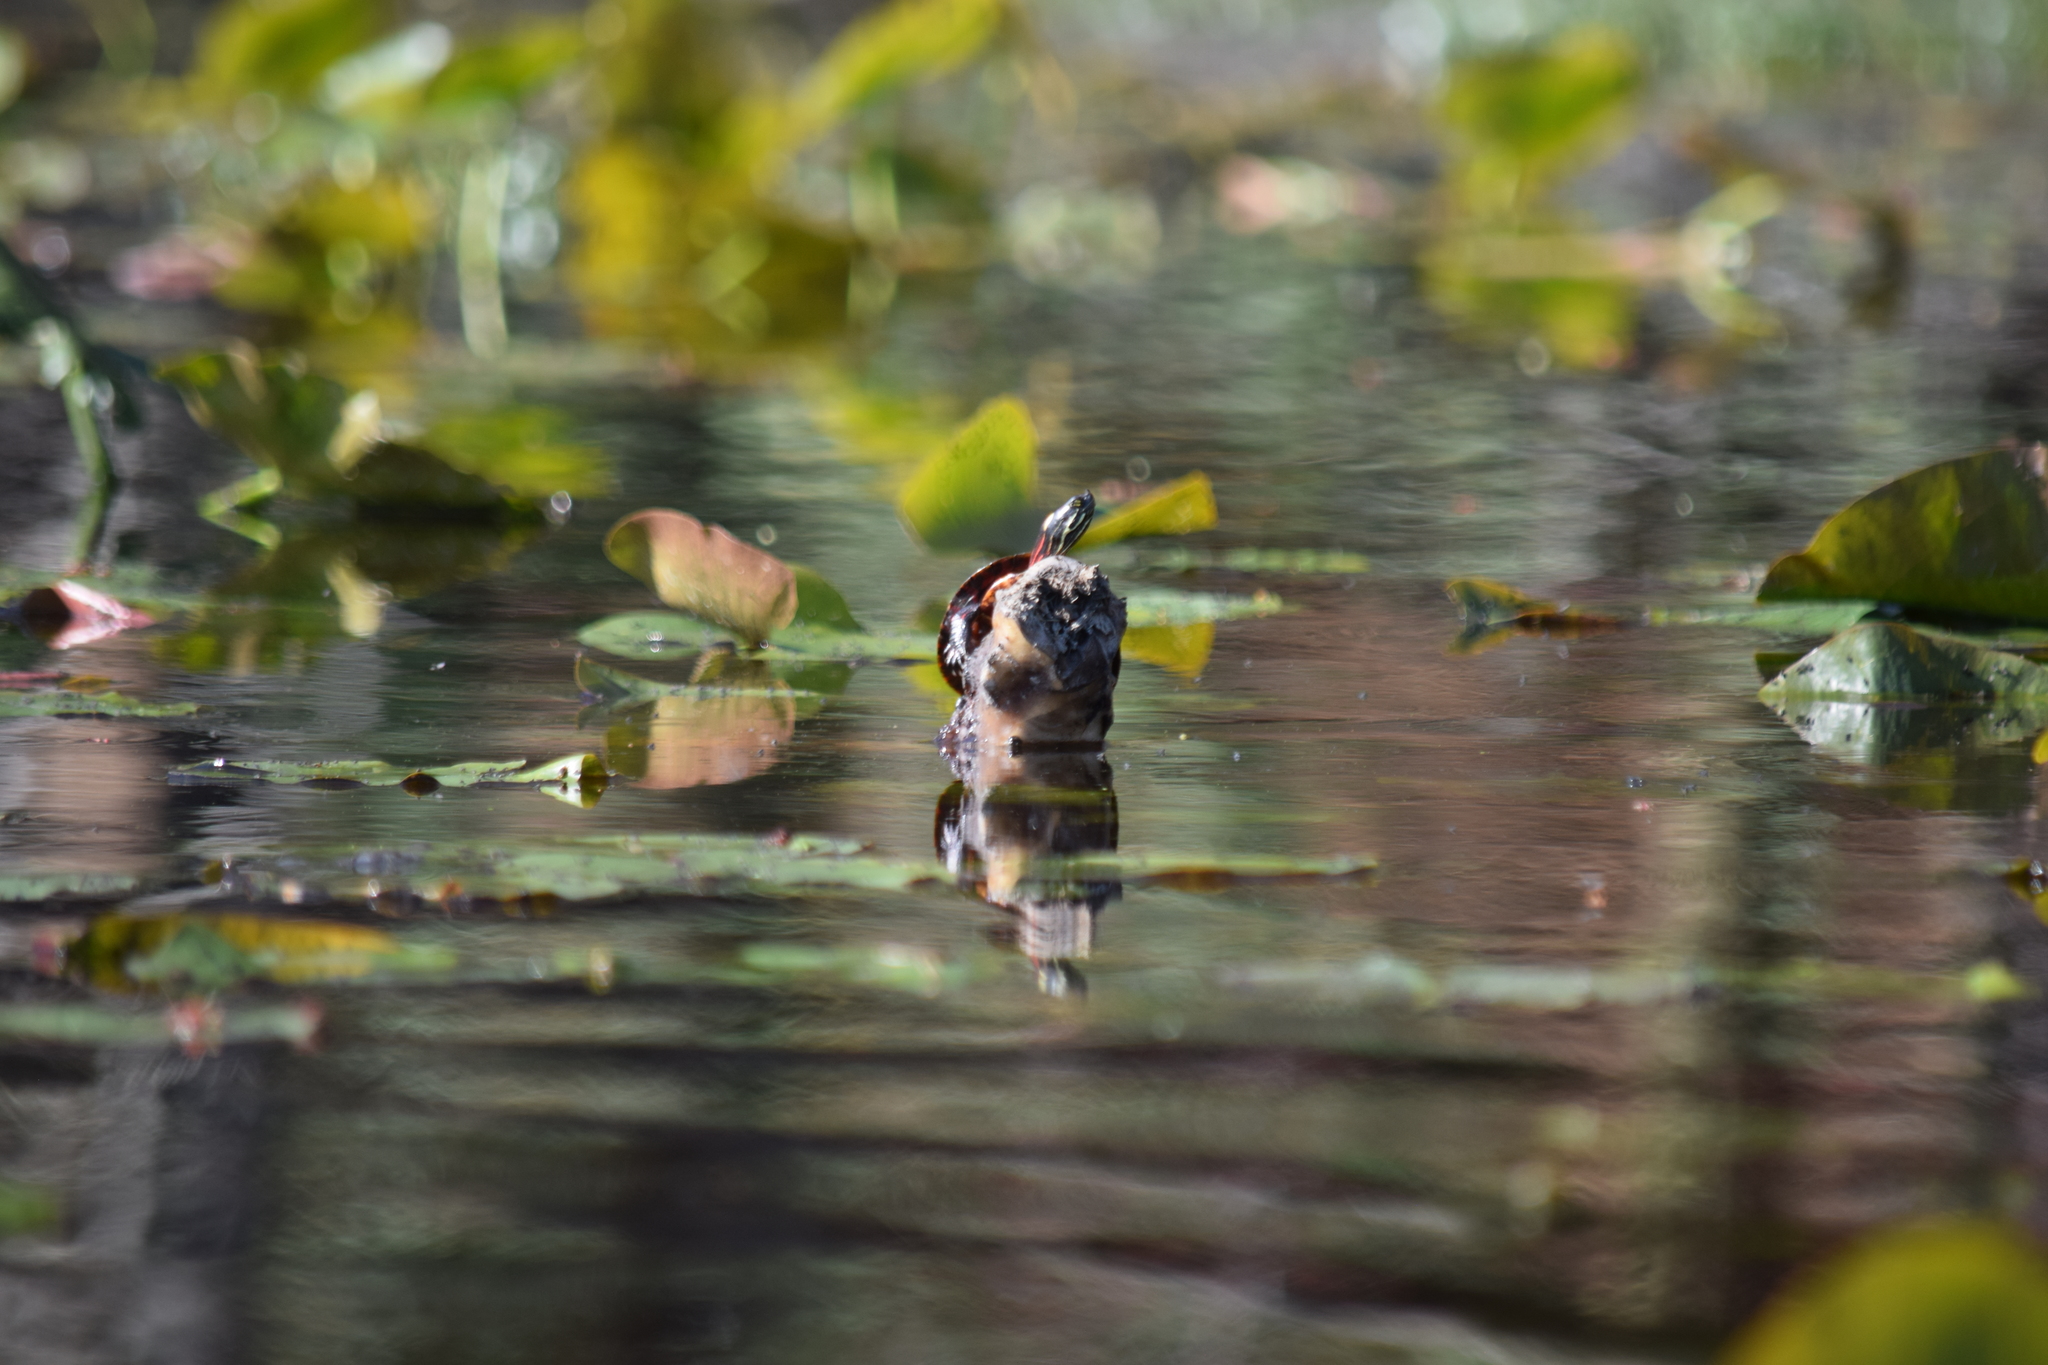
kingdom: Animalia
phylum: Chordata
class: Testudines
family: Emydidae
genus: Chrysemys
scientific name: Chrysemys picta
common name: Painted turtle
